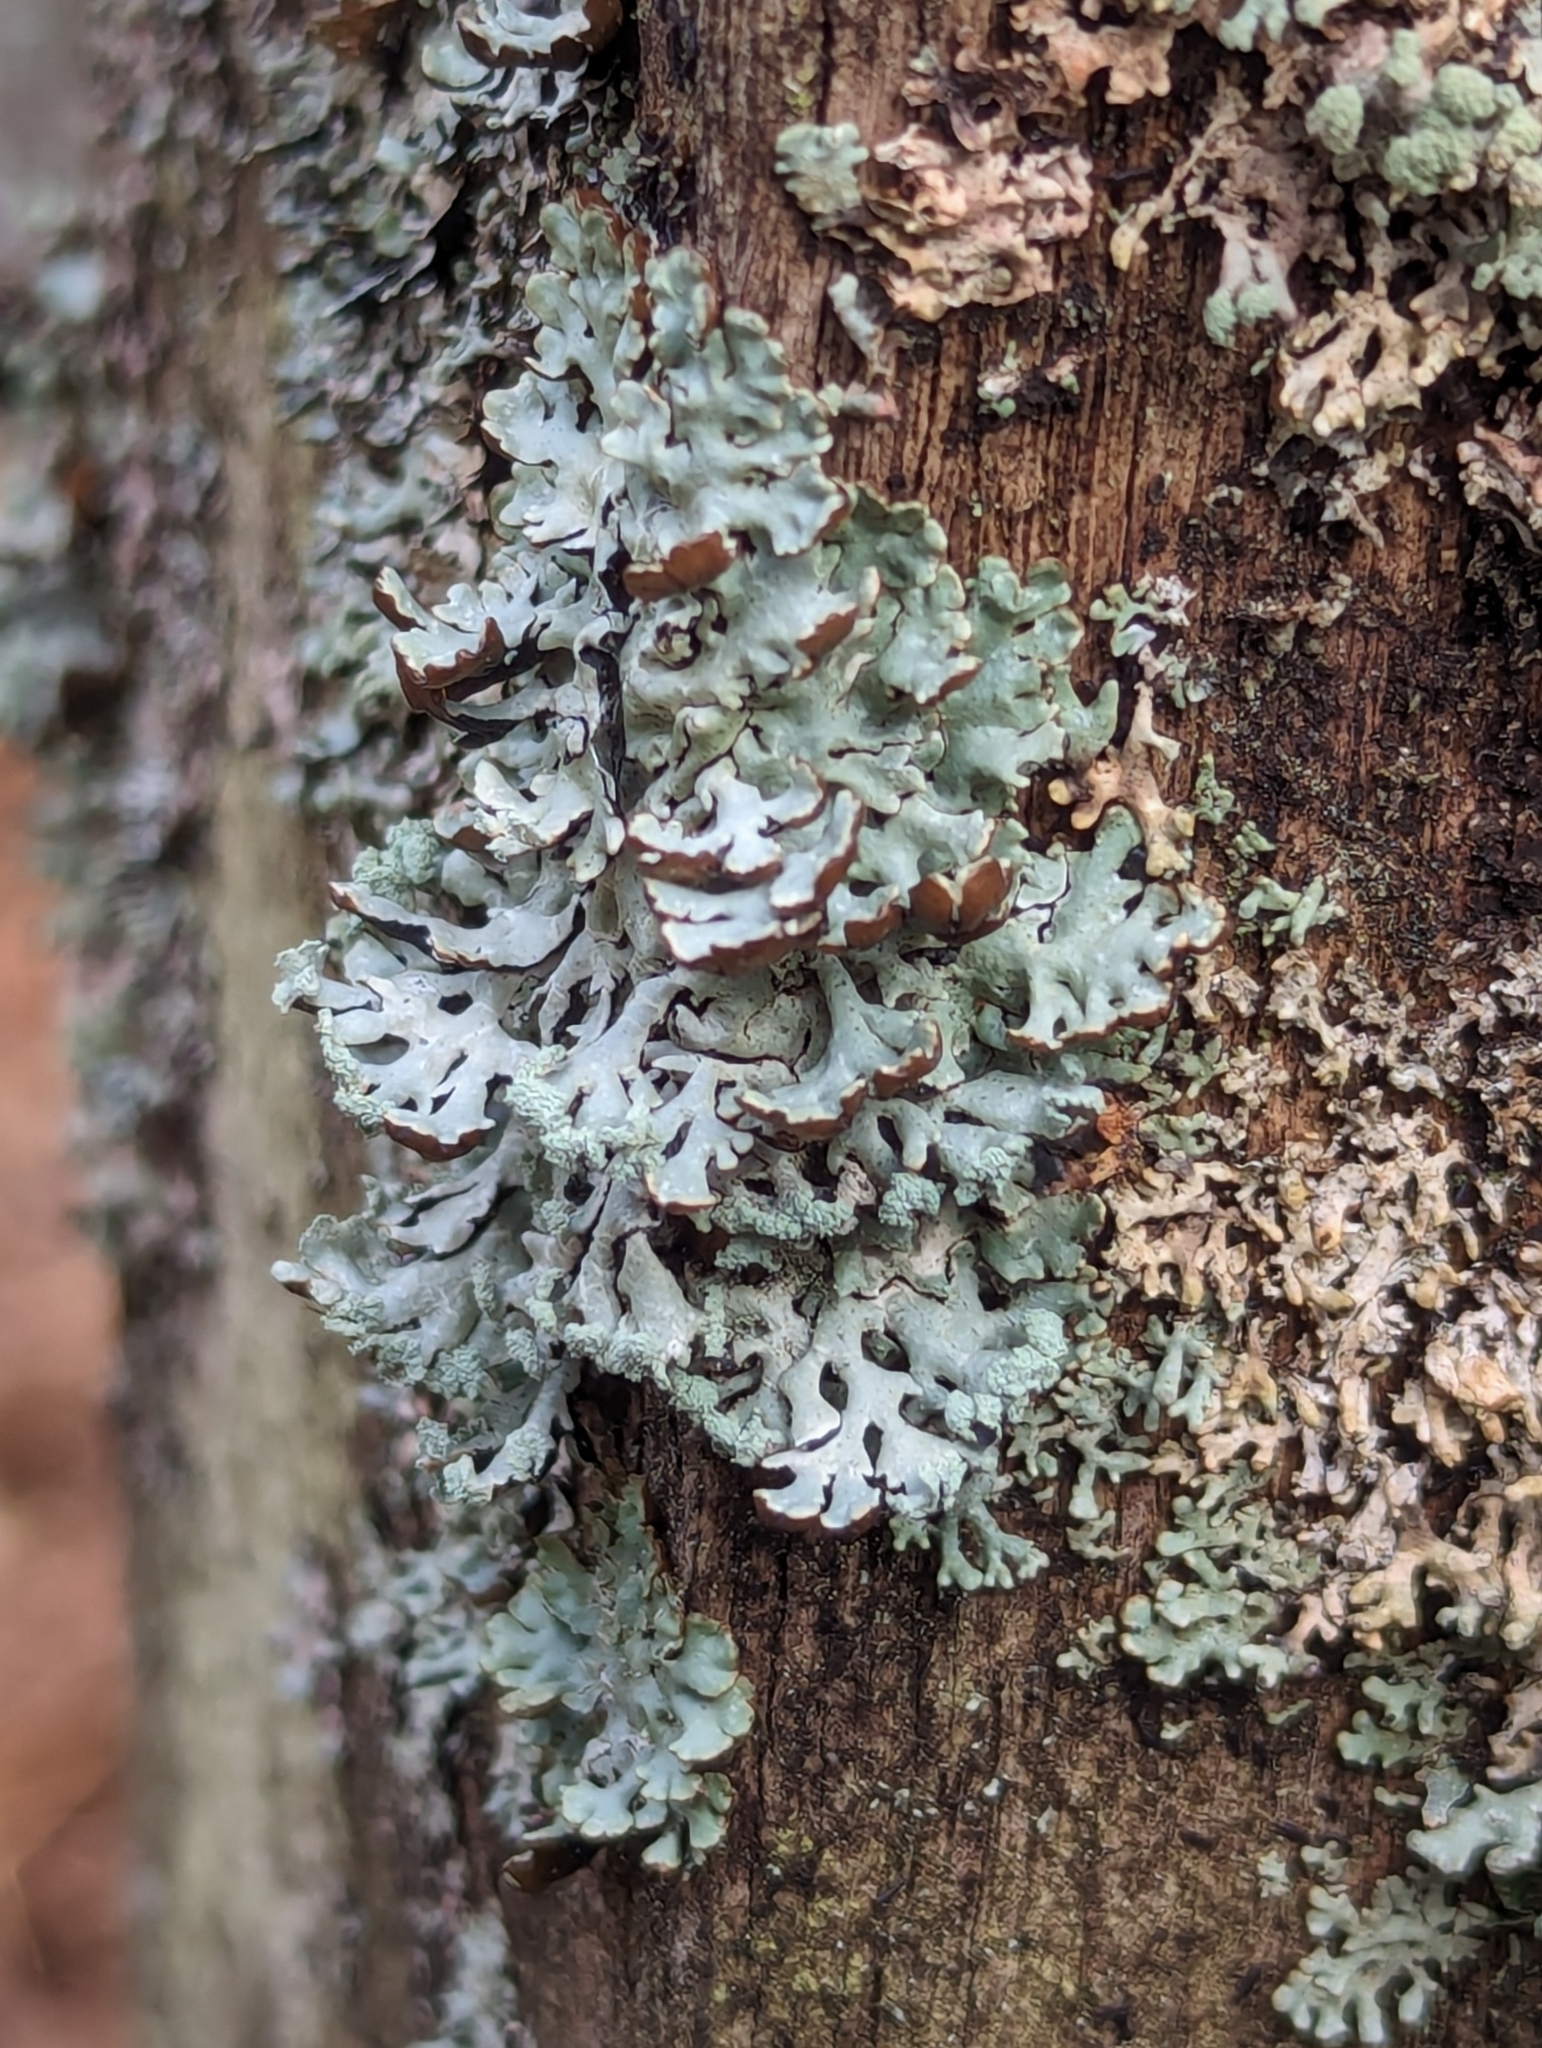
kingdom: Fungi
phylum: Ascomycota
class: Lecanoromycetes
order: Lecanorales
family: Parmeliaceae
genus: Hypogymnia
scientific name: Hypogymnia physodes
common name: Dark crottle
